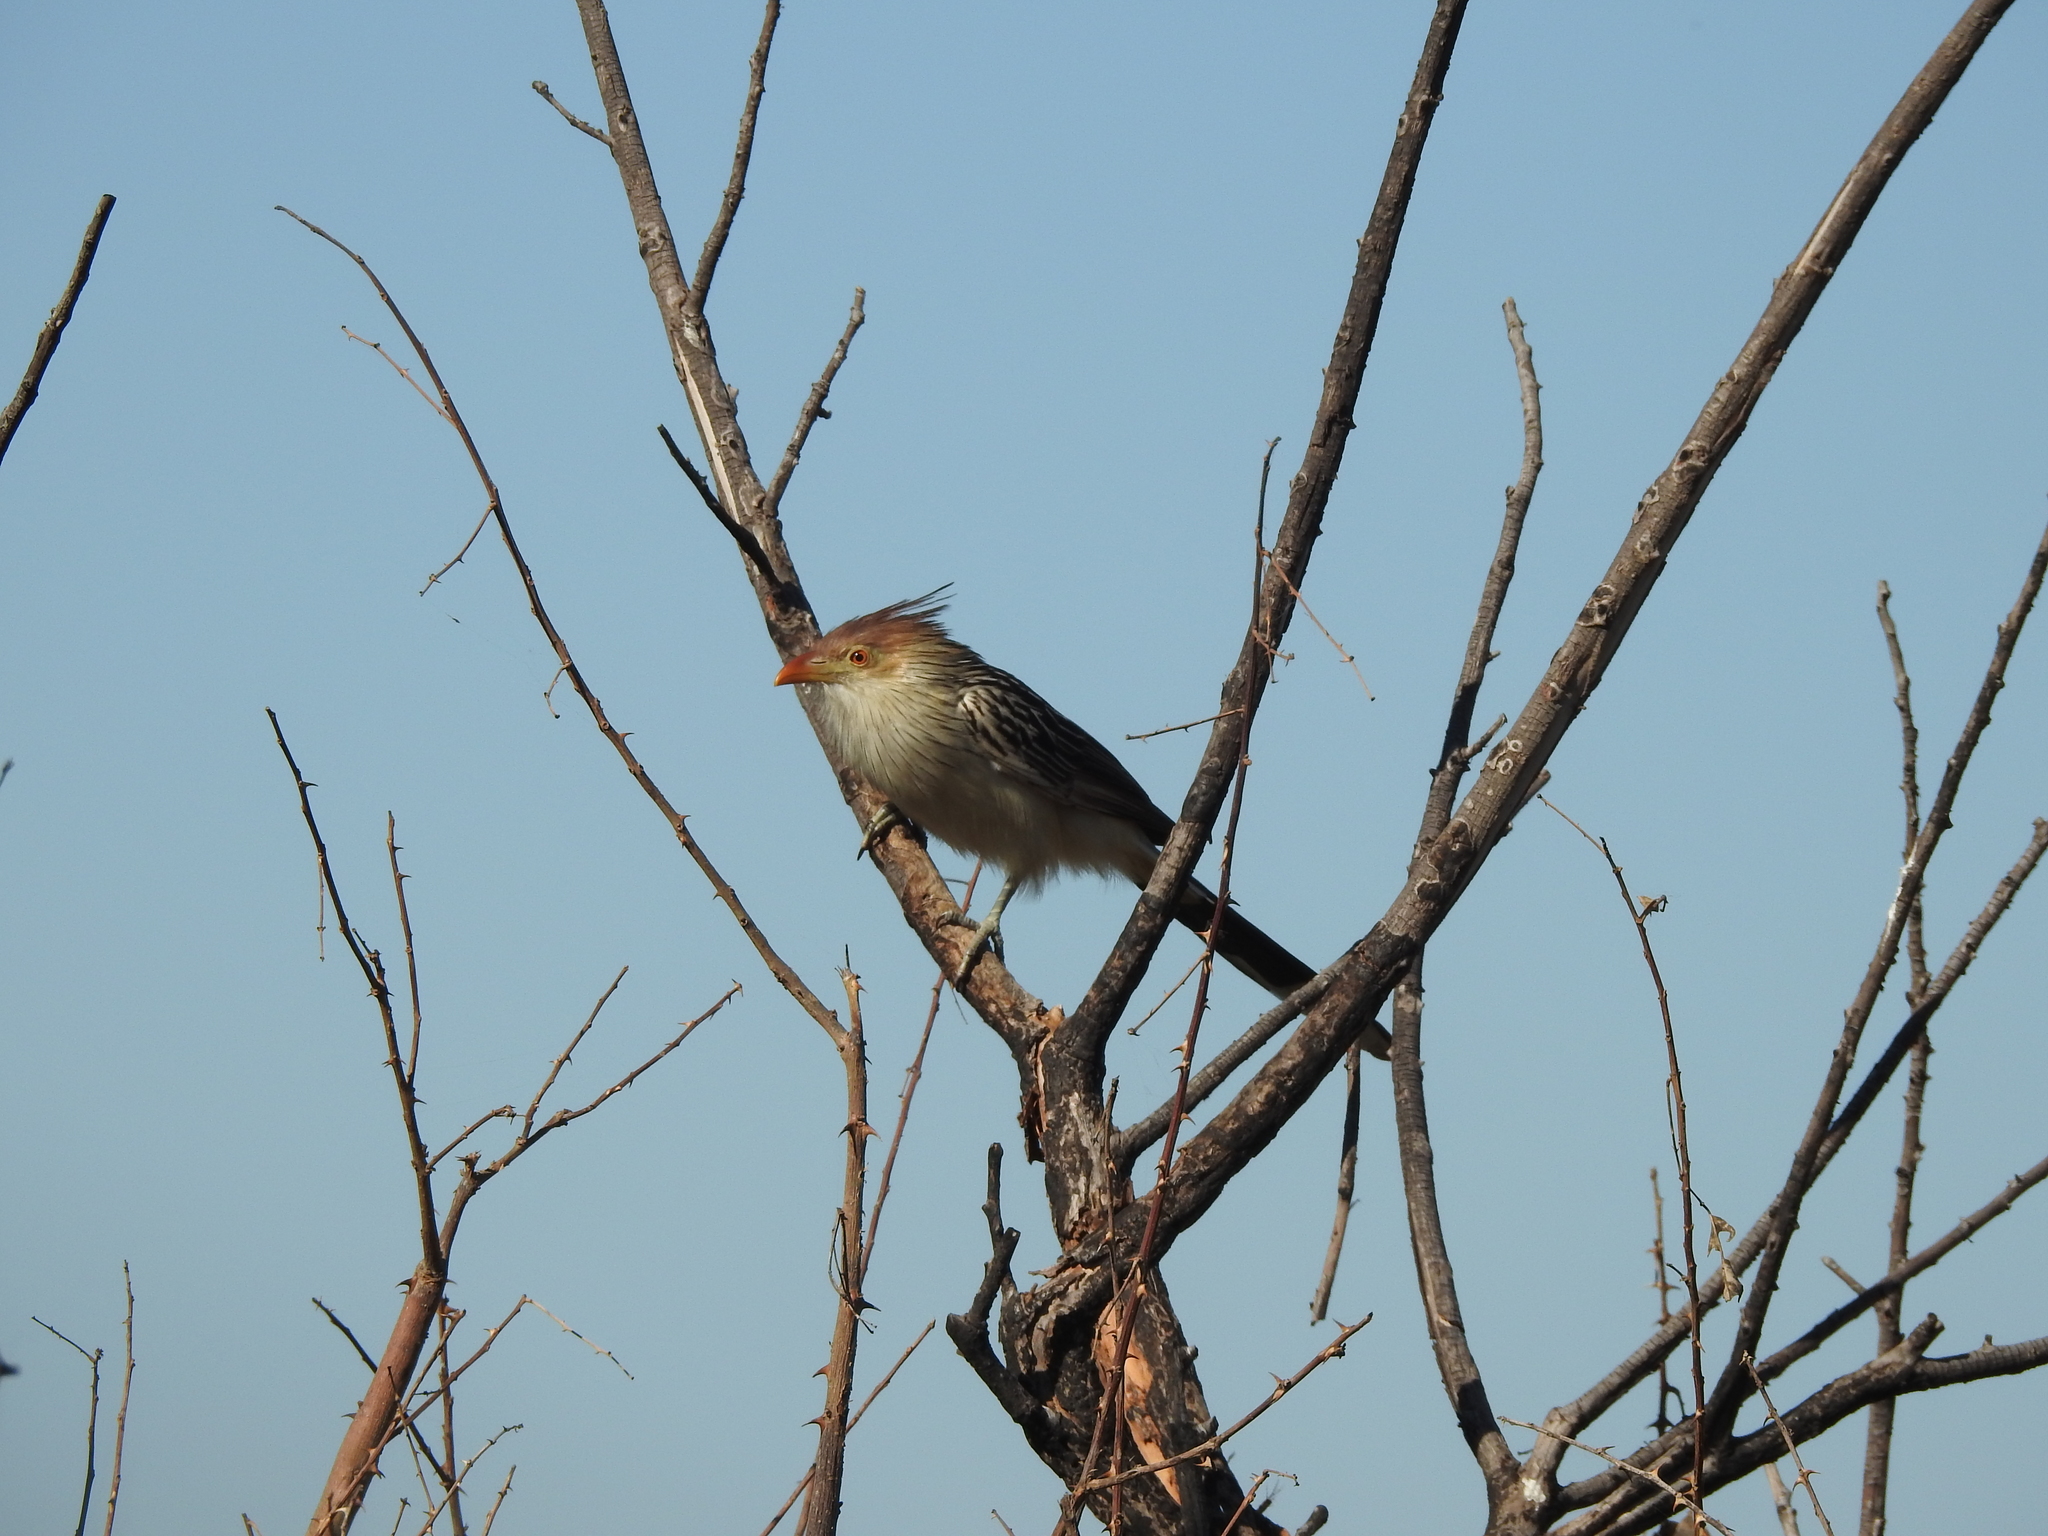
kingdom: Animalia
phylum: Chordata
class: Aves
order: Cuculiformes
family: Cuculidae
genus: Guira
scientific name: Guira guira
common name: Guira cuckoo
